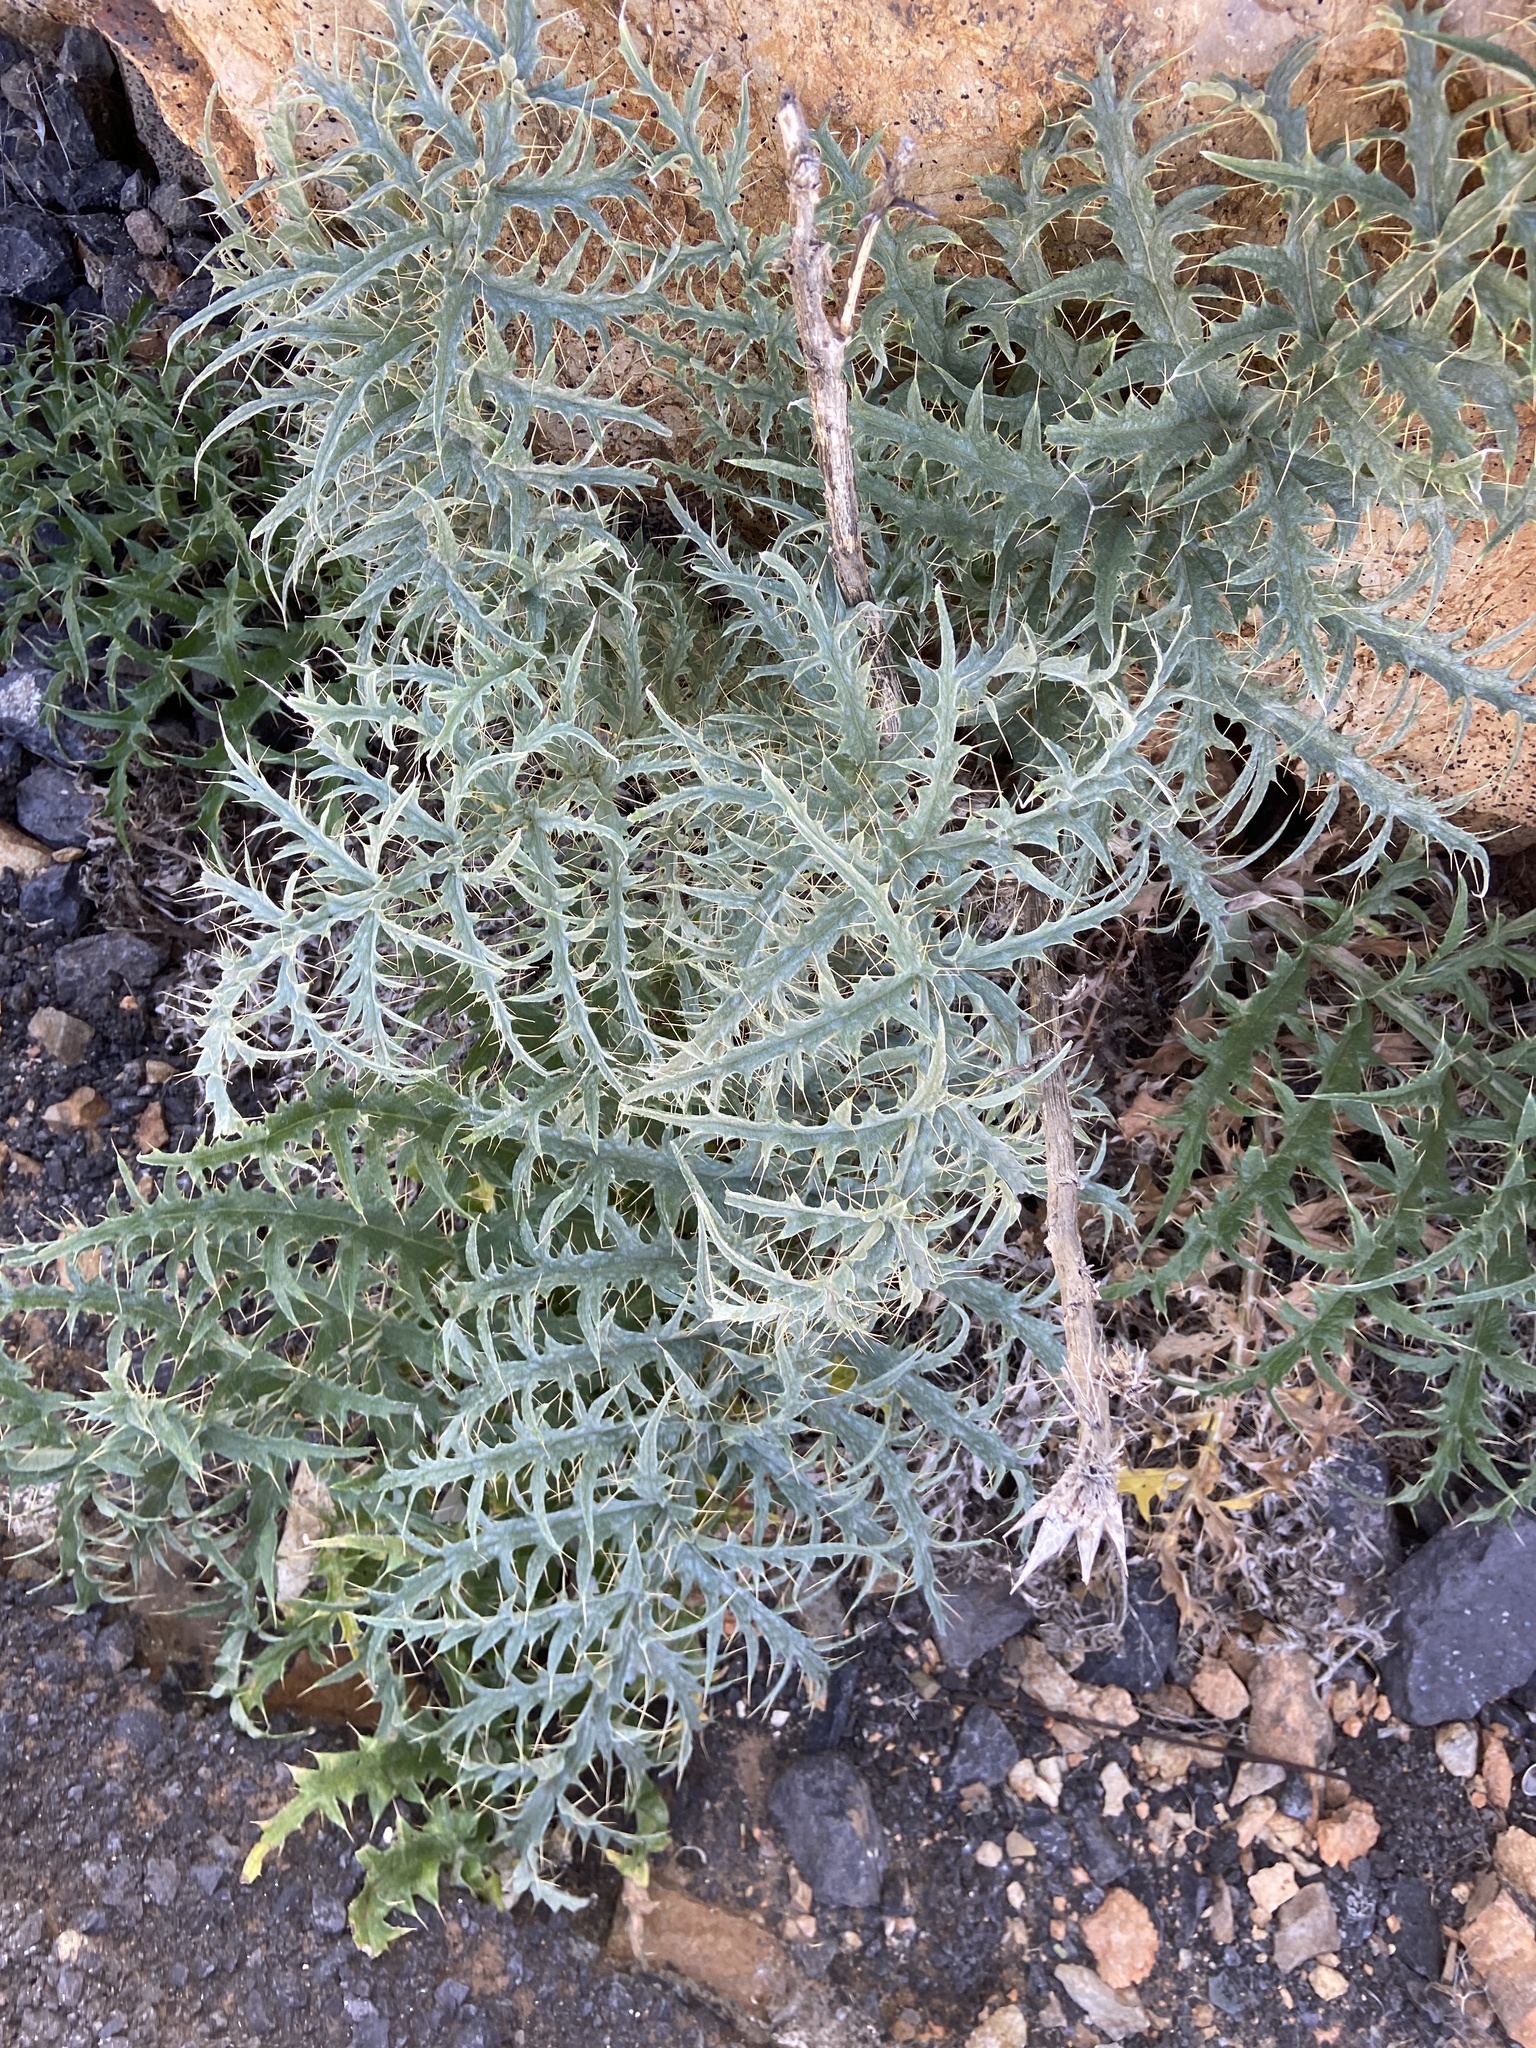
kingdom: Plantae
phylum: Tracheophyta
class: Magnoliopsida
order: Asterales
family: Asteraceae
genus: Cynara
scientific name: Cynara cardunculus
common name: Globe artichoke
